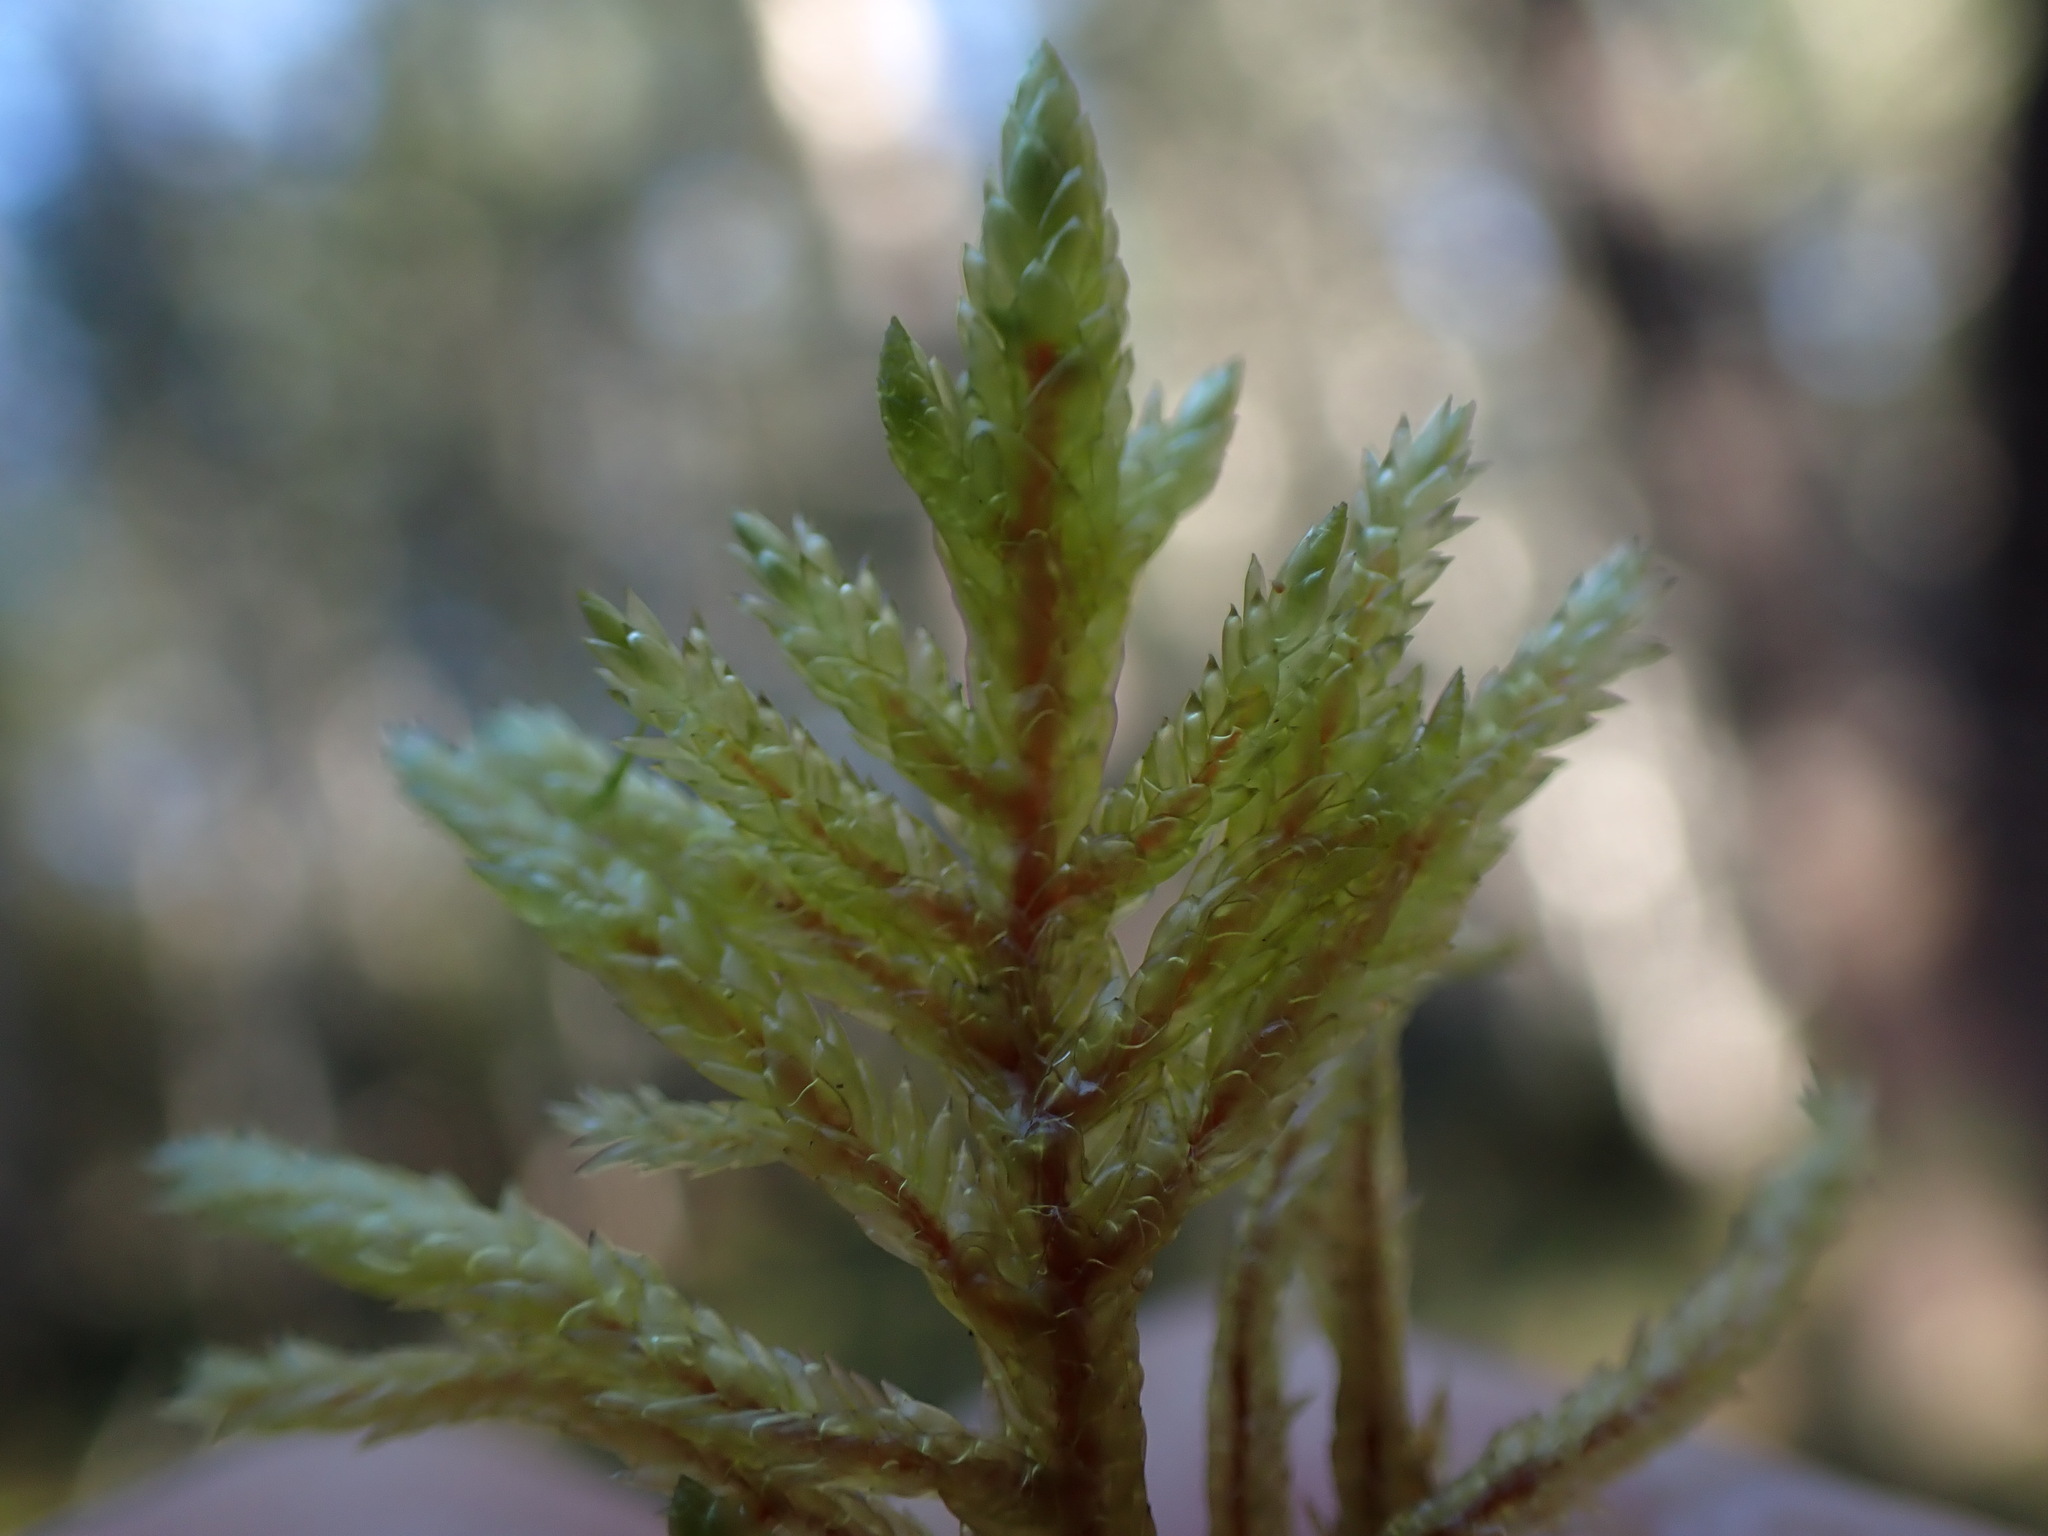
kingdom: Plantae
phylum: Bryophyta
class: Bryopsida
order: Hypnales
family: Hylocomiaceae
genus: Pleurozium
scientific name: Pleurozium schreberi
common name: Red-stemmed feather moss
